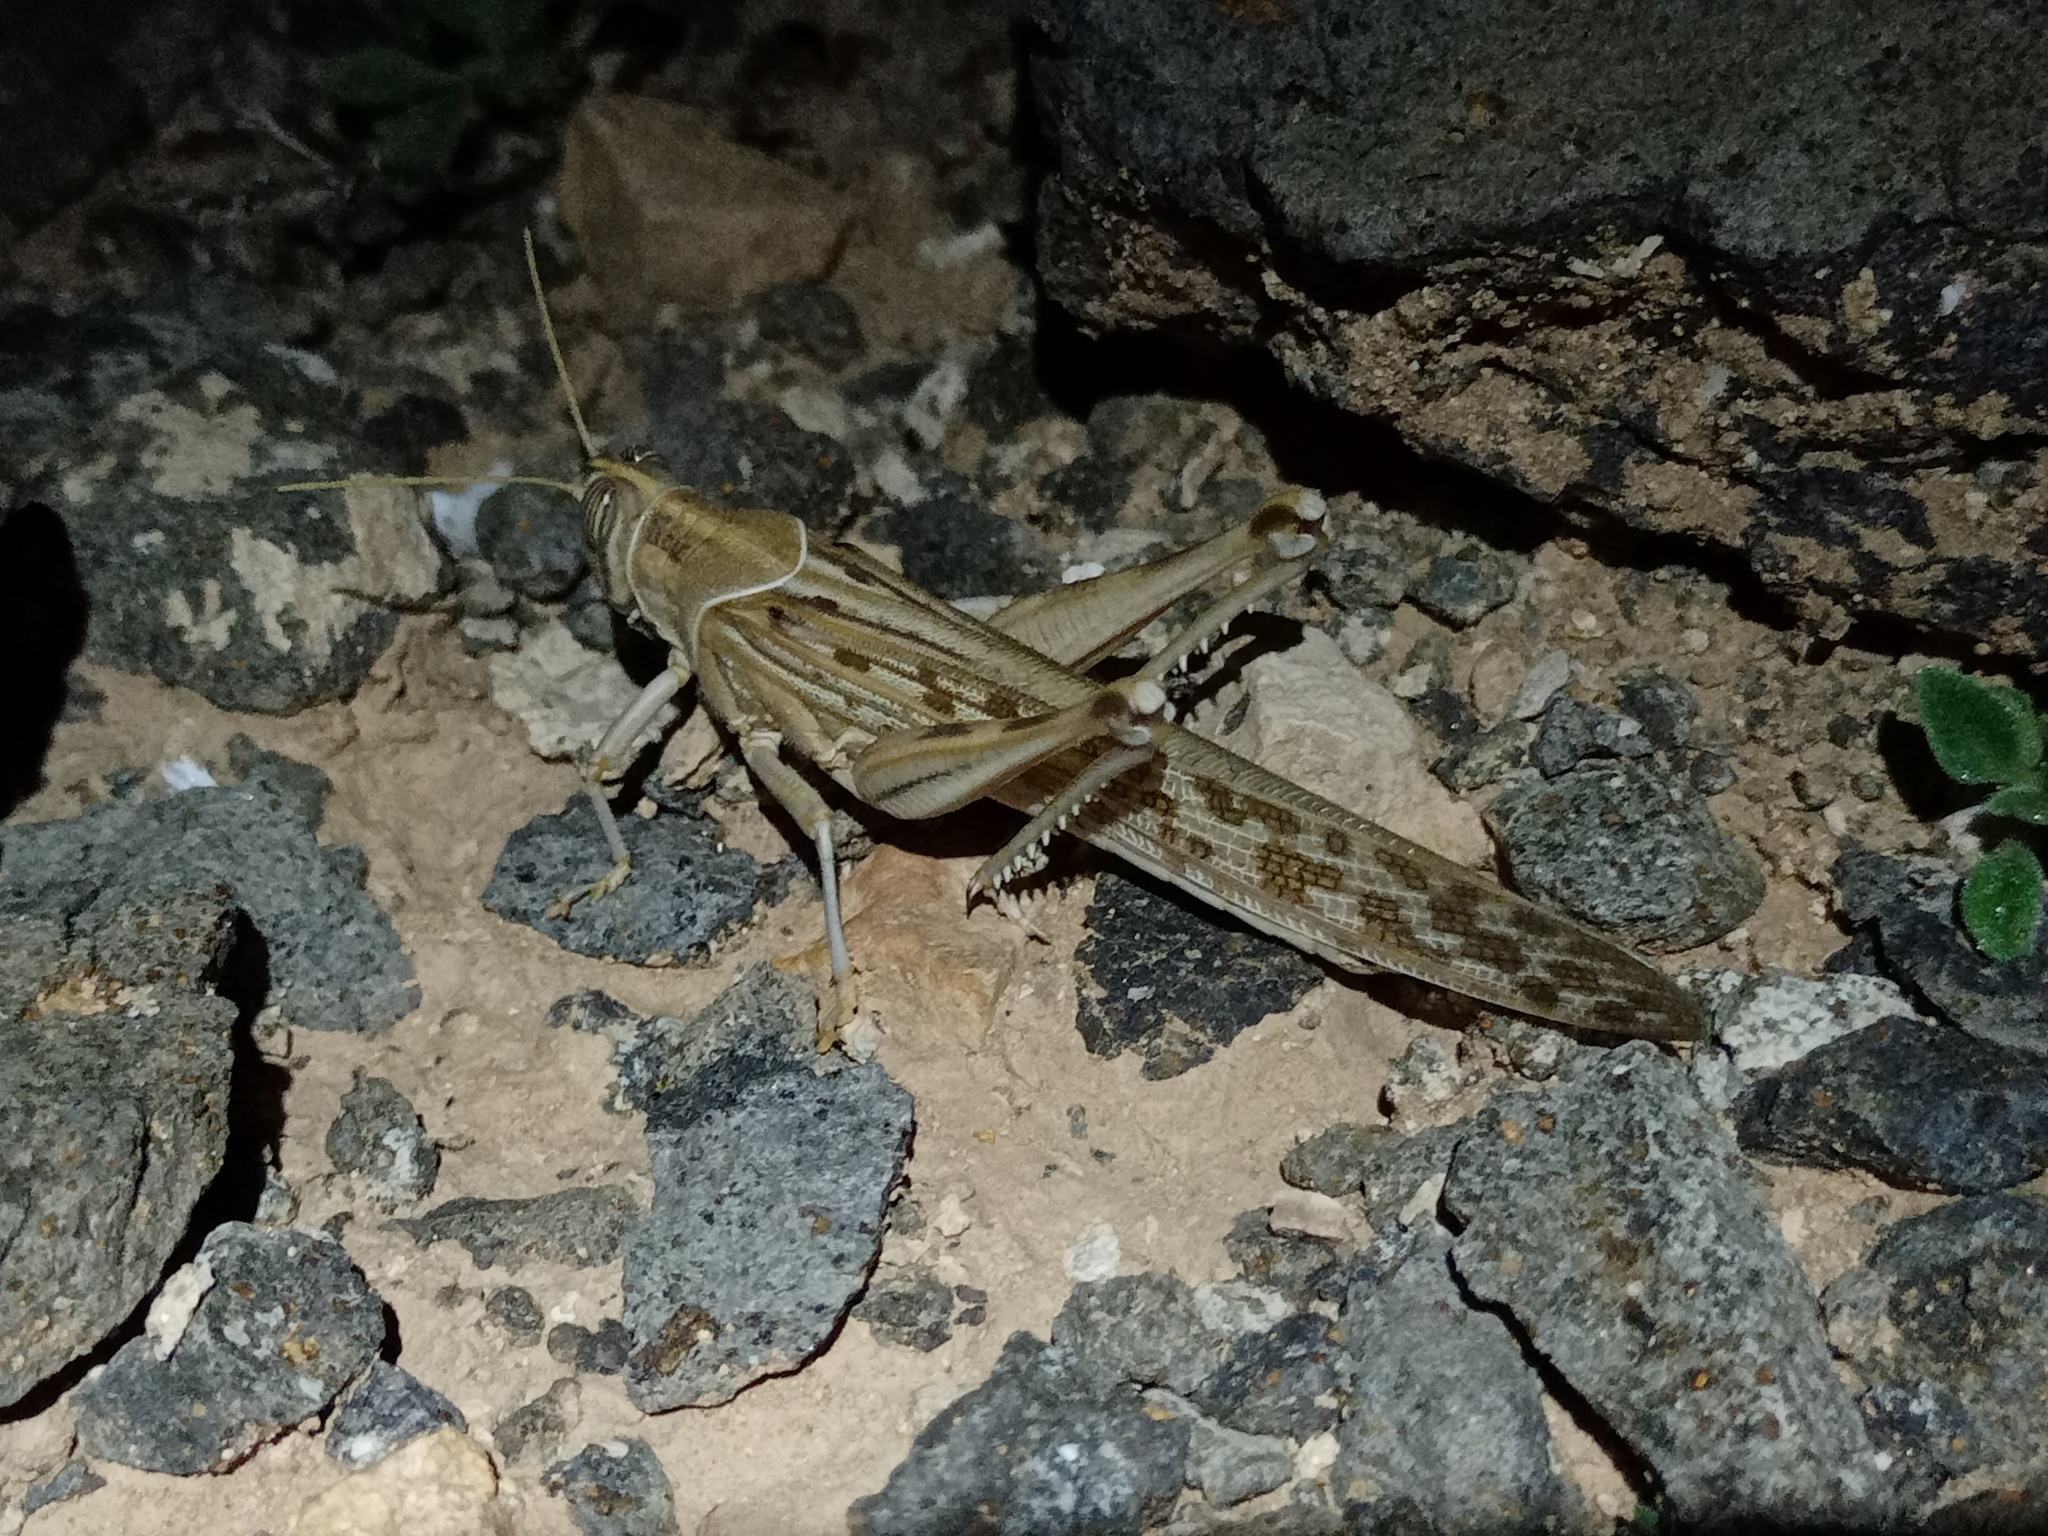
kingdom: Animalia
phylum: Arthropoda
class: Insecta
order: Orthoptera
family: Acrididae
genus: Schistocerca
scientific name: Schistocerca gregaria
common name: Desert locust
